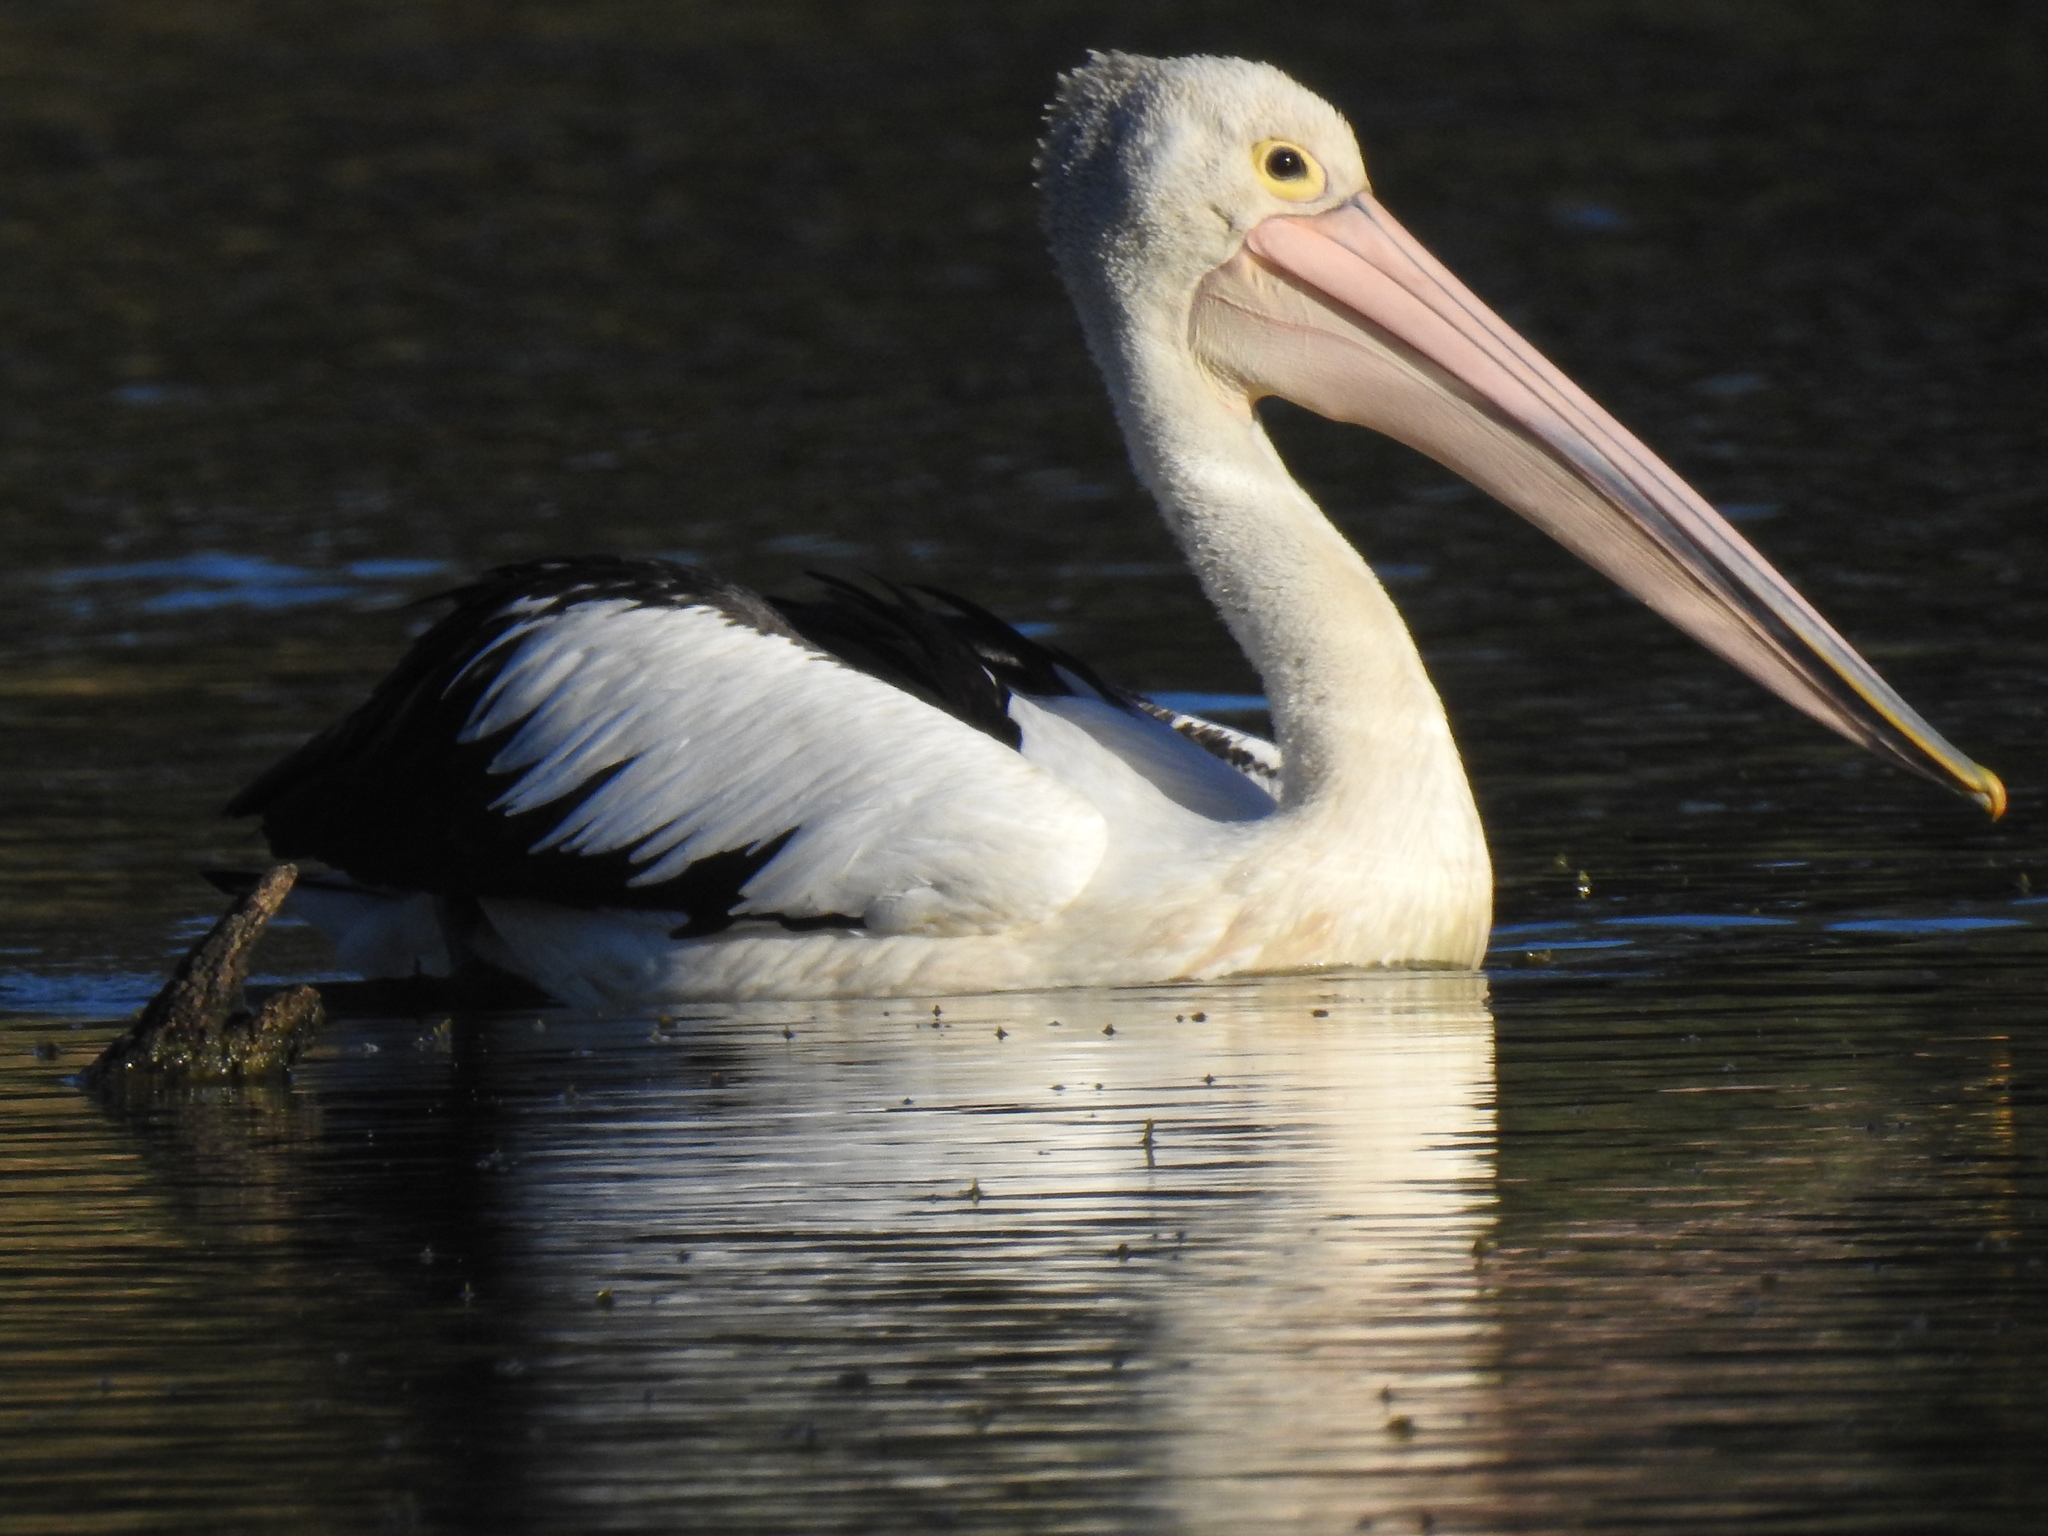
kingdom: Animalia
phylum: Chordata
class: Aves
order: Pelecaniformes
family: Pelecanidae
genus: Pelecanus
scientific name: Pelecanus conspicillatus
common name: Australian pelican
